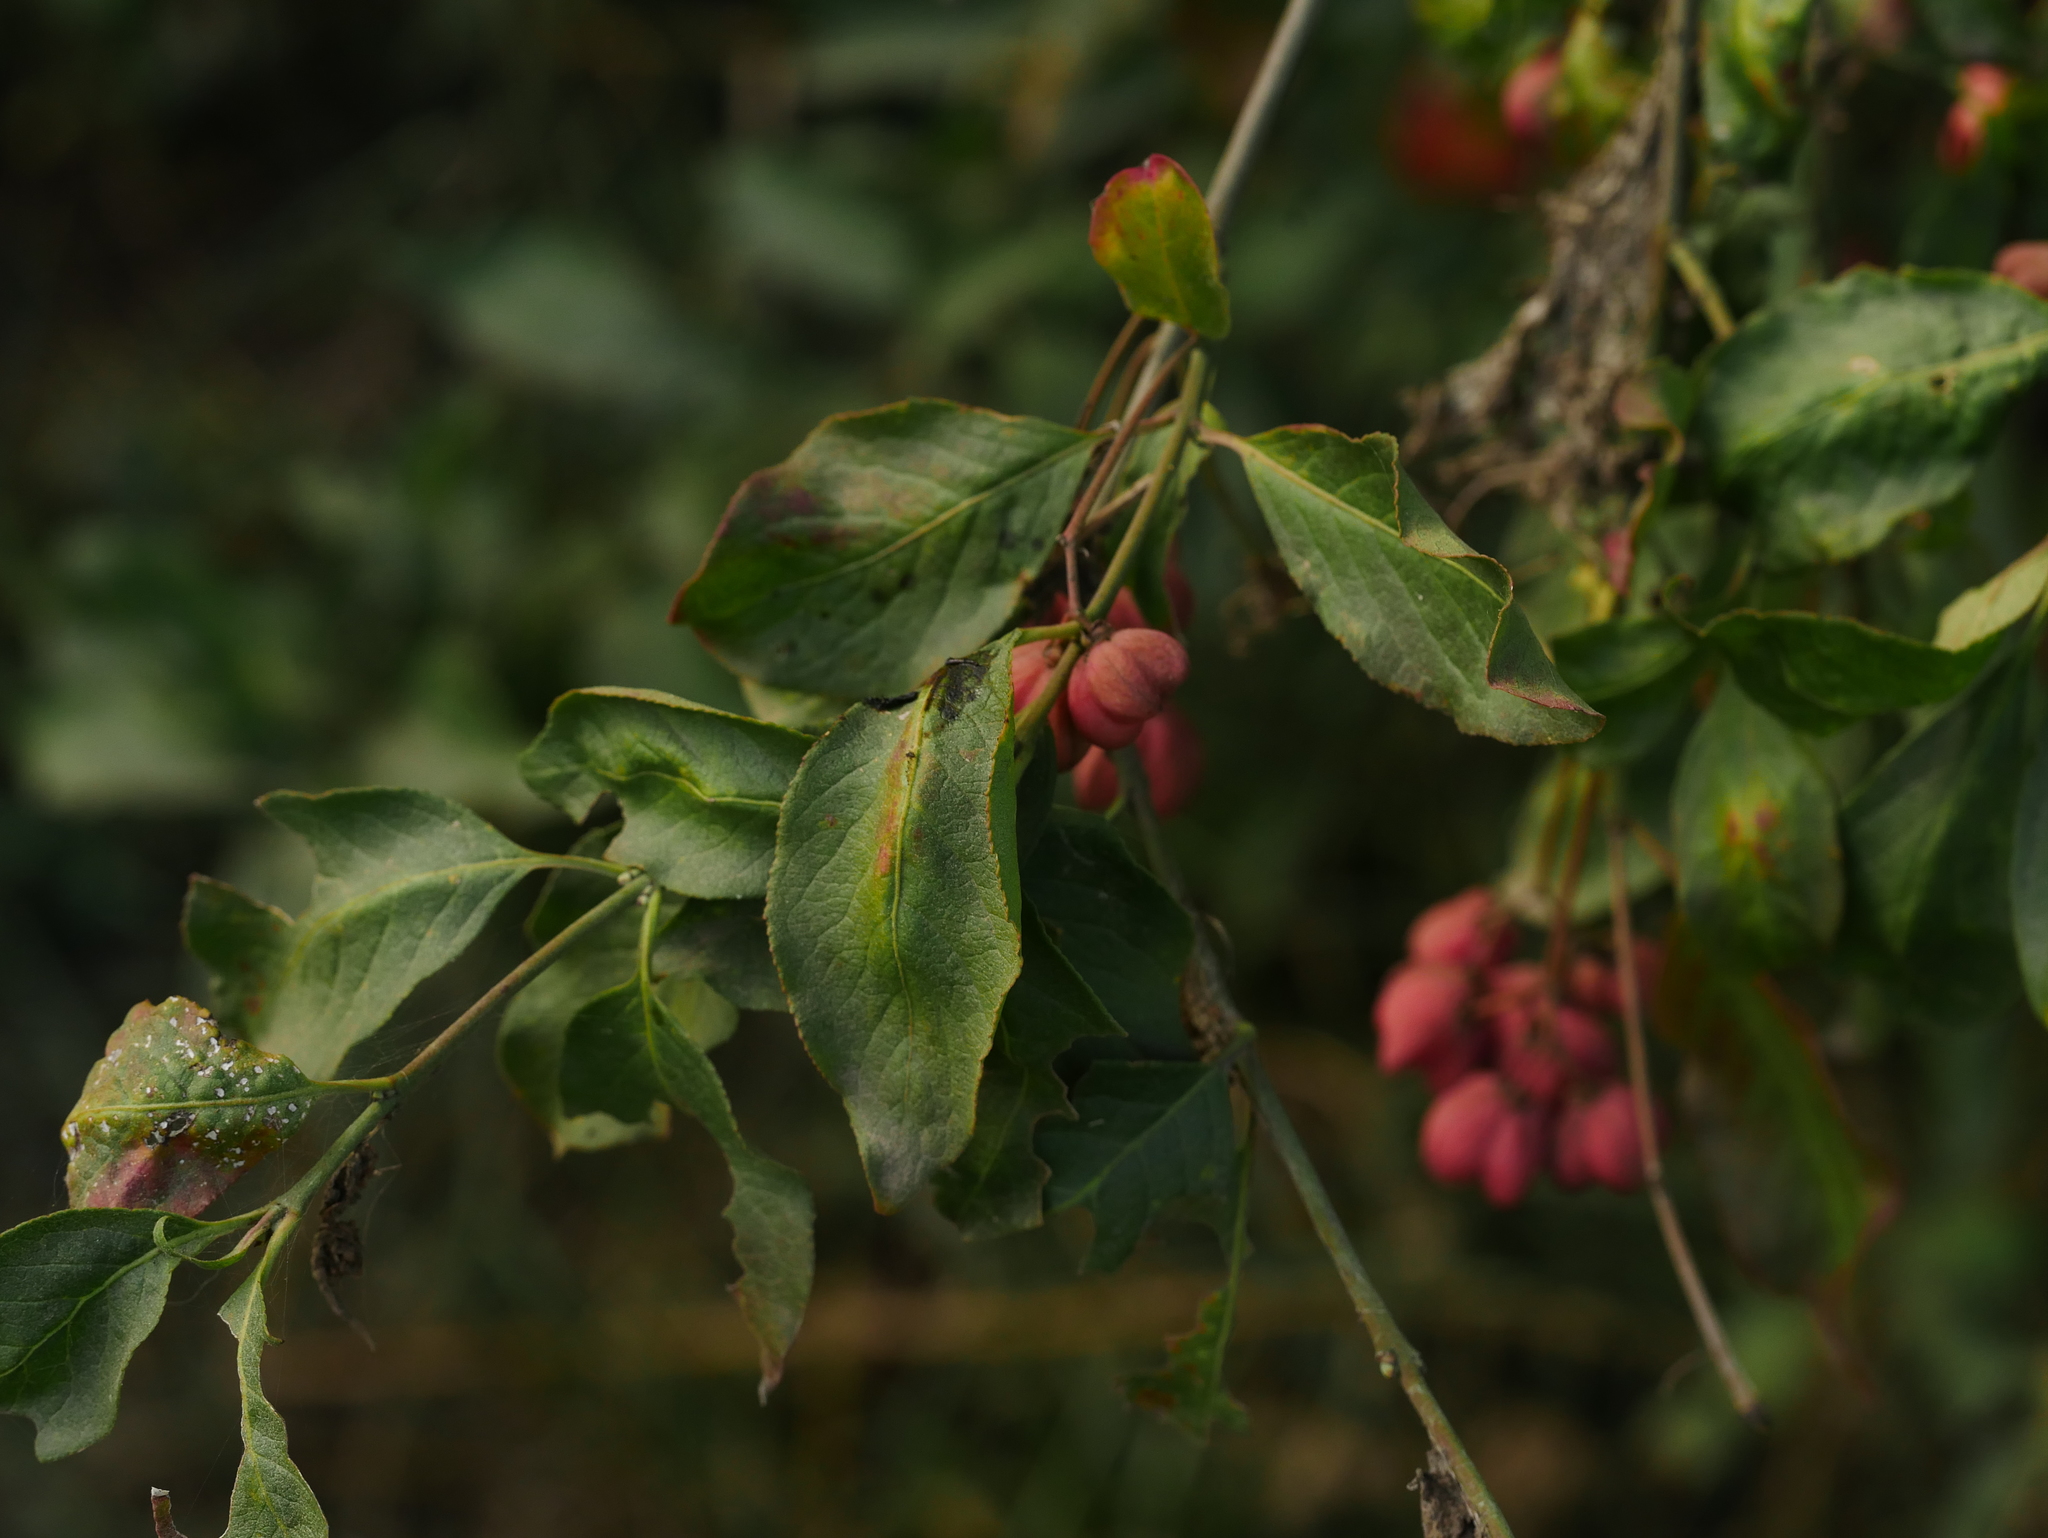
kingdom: Plantae
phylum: Tracheophyta
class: Magnoliopsida
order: Celastrales
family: Celastraceae
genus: Euonymus
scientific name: Euonymus europaeus
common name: Spindle
